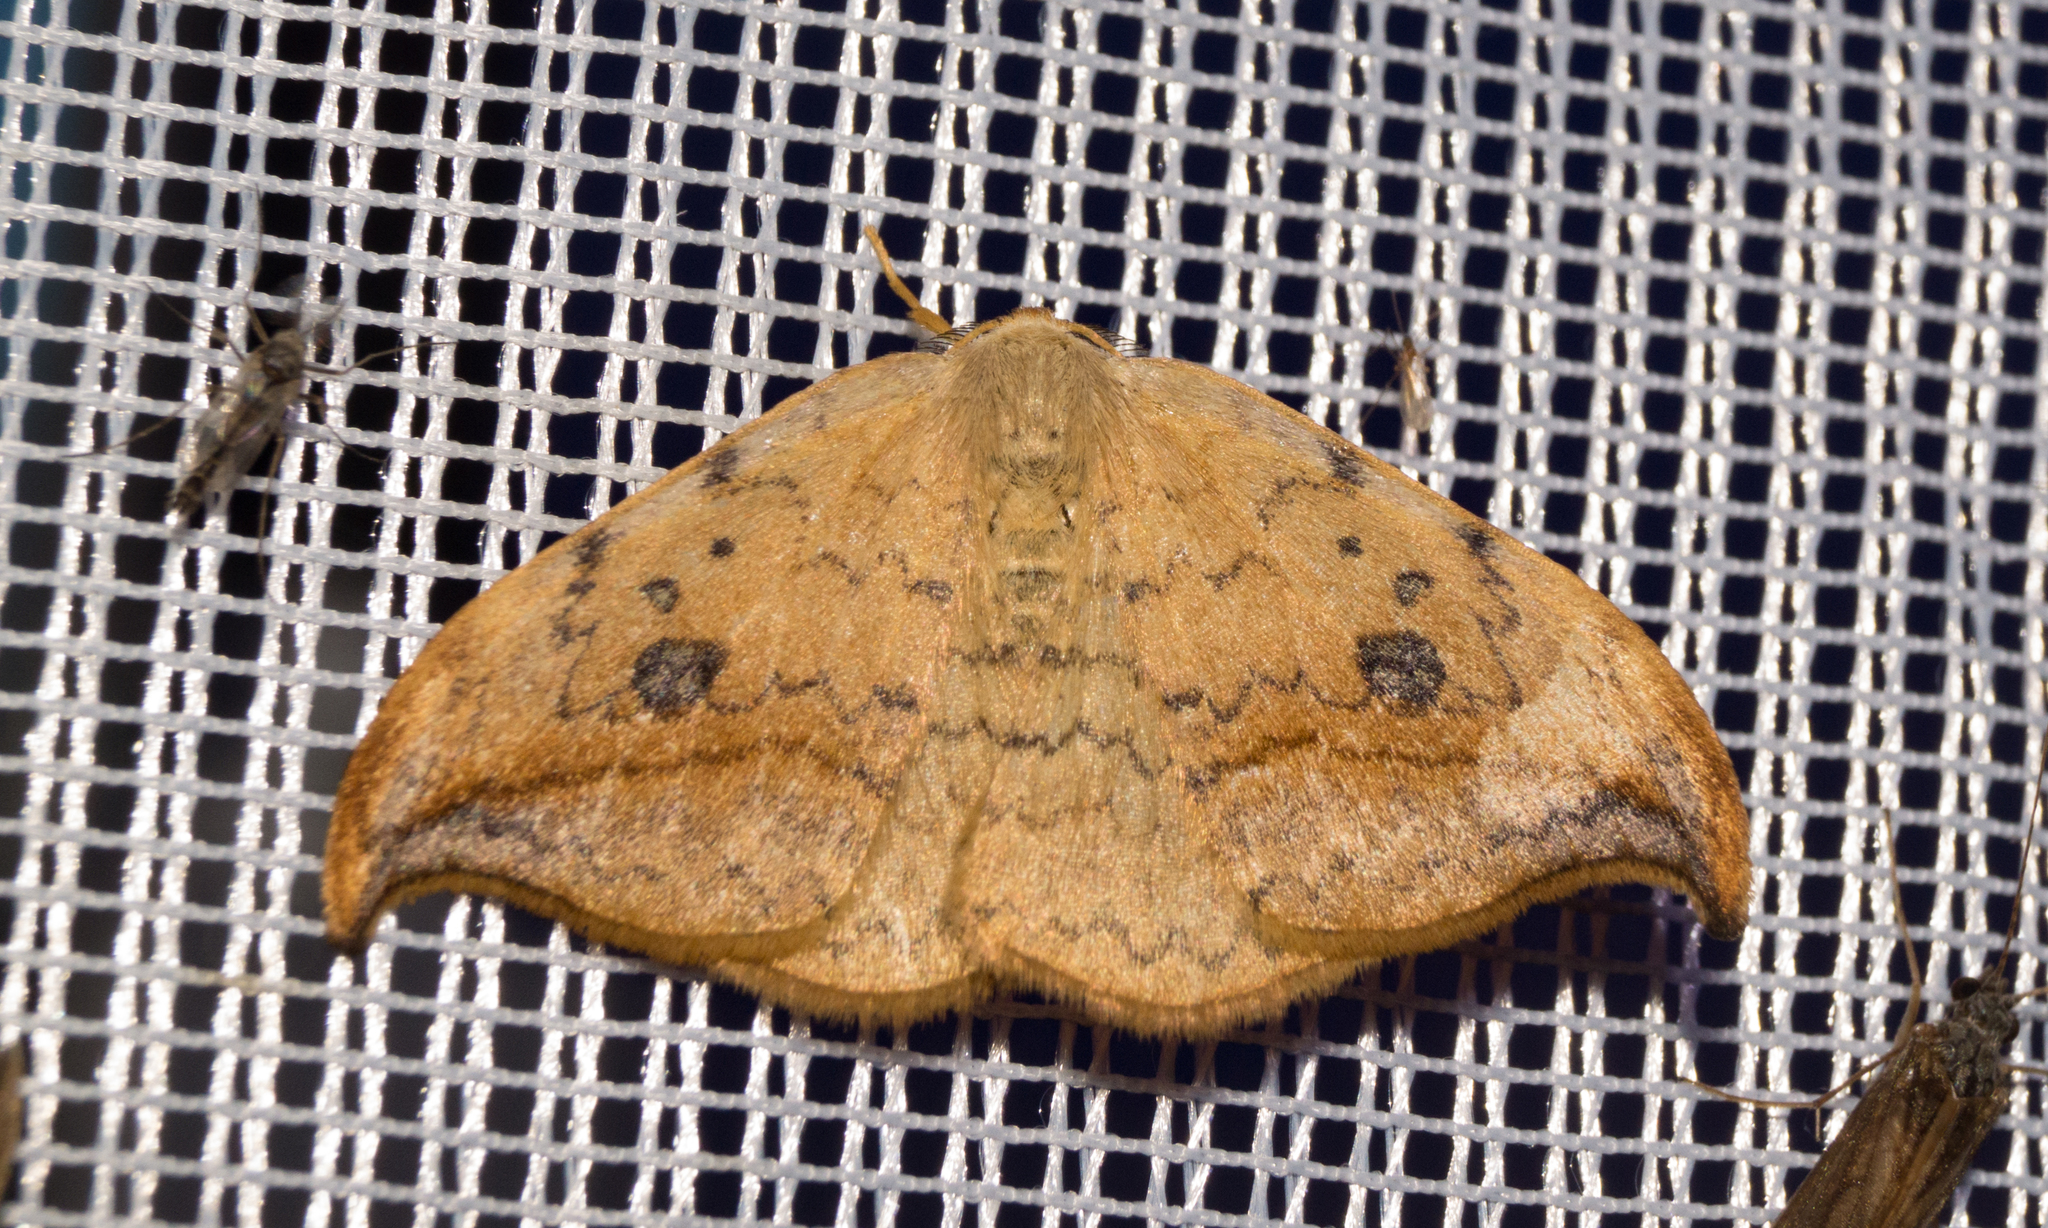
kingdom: Animalia
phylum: Arthropoda
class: Insecta
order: Lepidoptera
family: Drepanidae
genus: Drepana
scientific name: Drepana falcataria
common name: Pebble hook-tip
